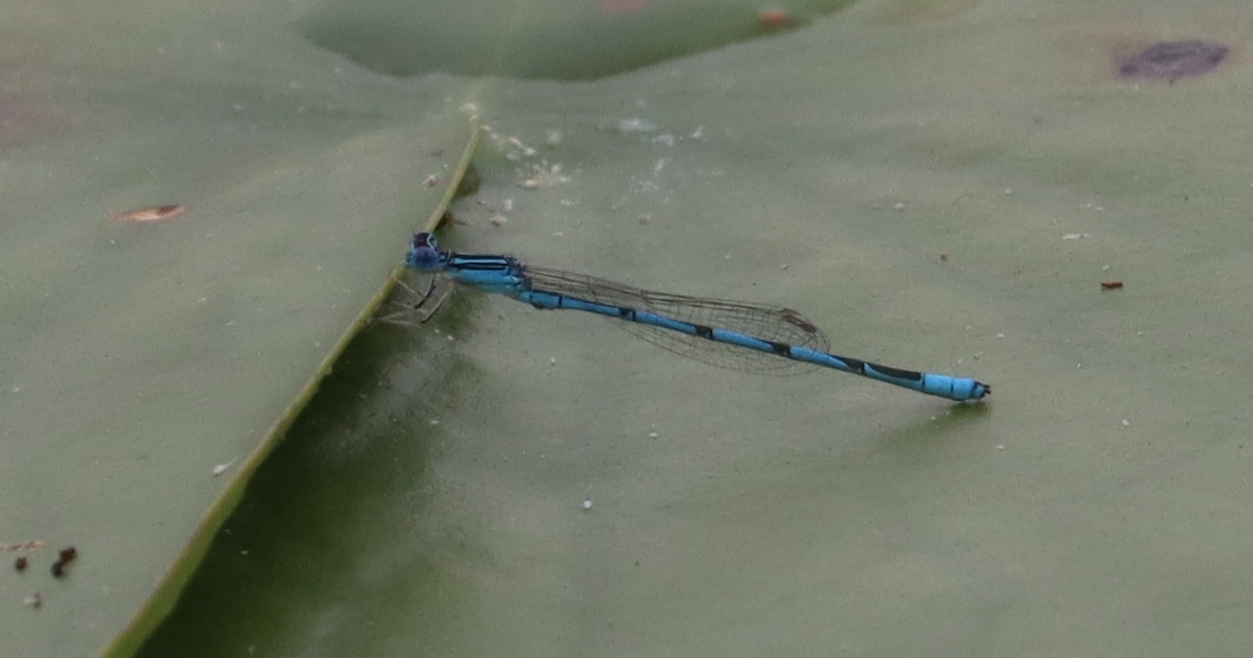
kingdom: Animalia
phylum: Arthropoda
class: Insecta
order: Odonata
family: Coenagrionidae
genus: Enallagma
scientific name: Enallagma basidens
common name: Double-striped bluet
